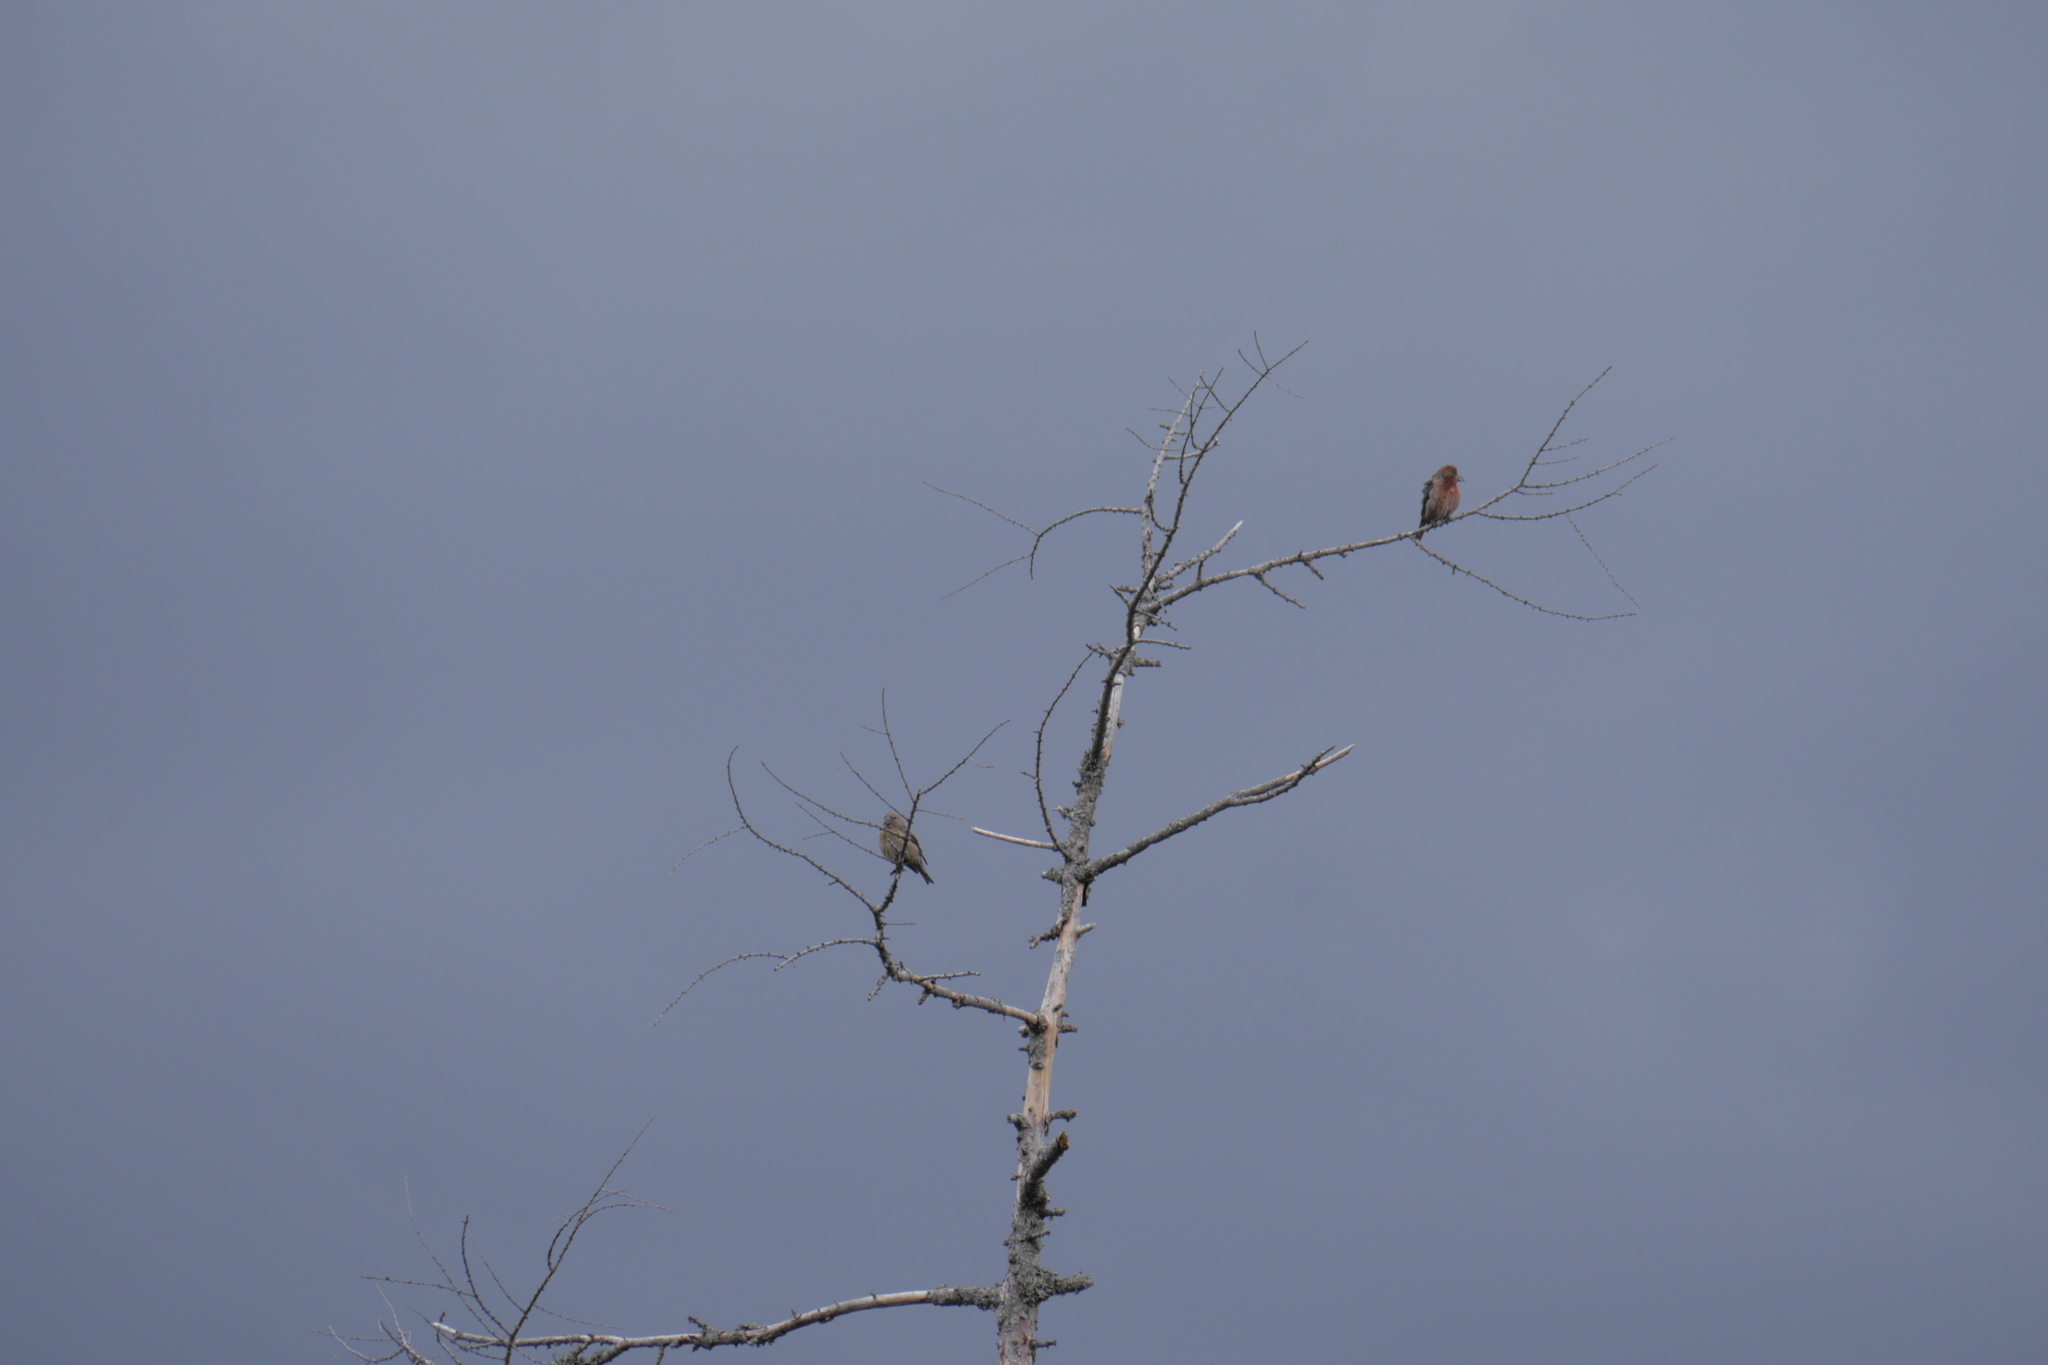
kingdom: Animalia
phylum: Chordata
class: Aves
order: Passeriformes
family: Fringillidae
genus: Loxia
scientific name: Loxia curvirostra
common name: Red crossbill
